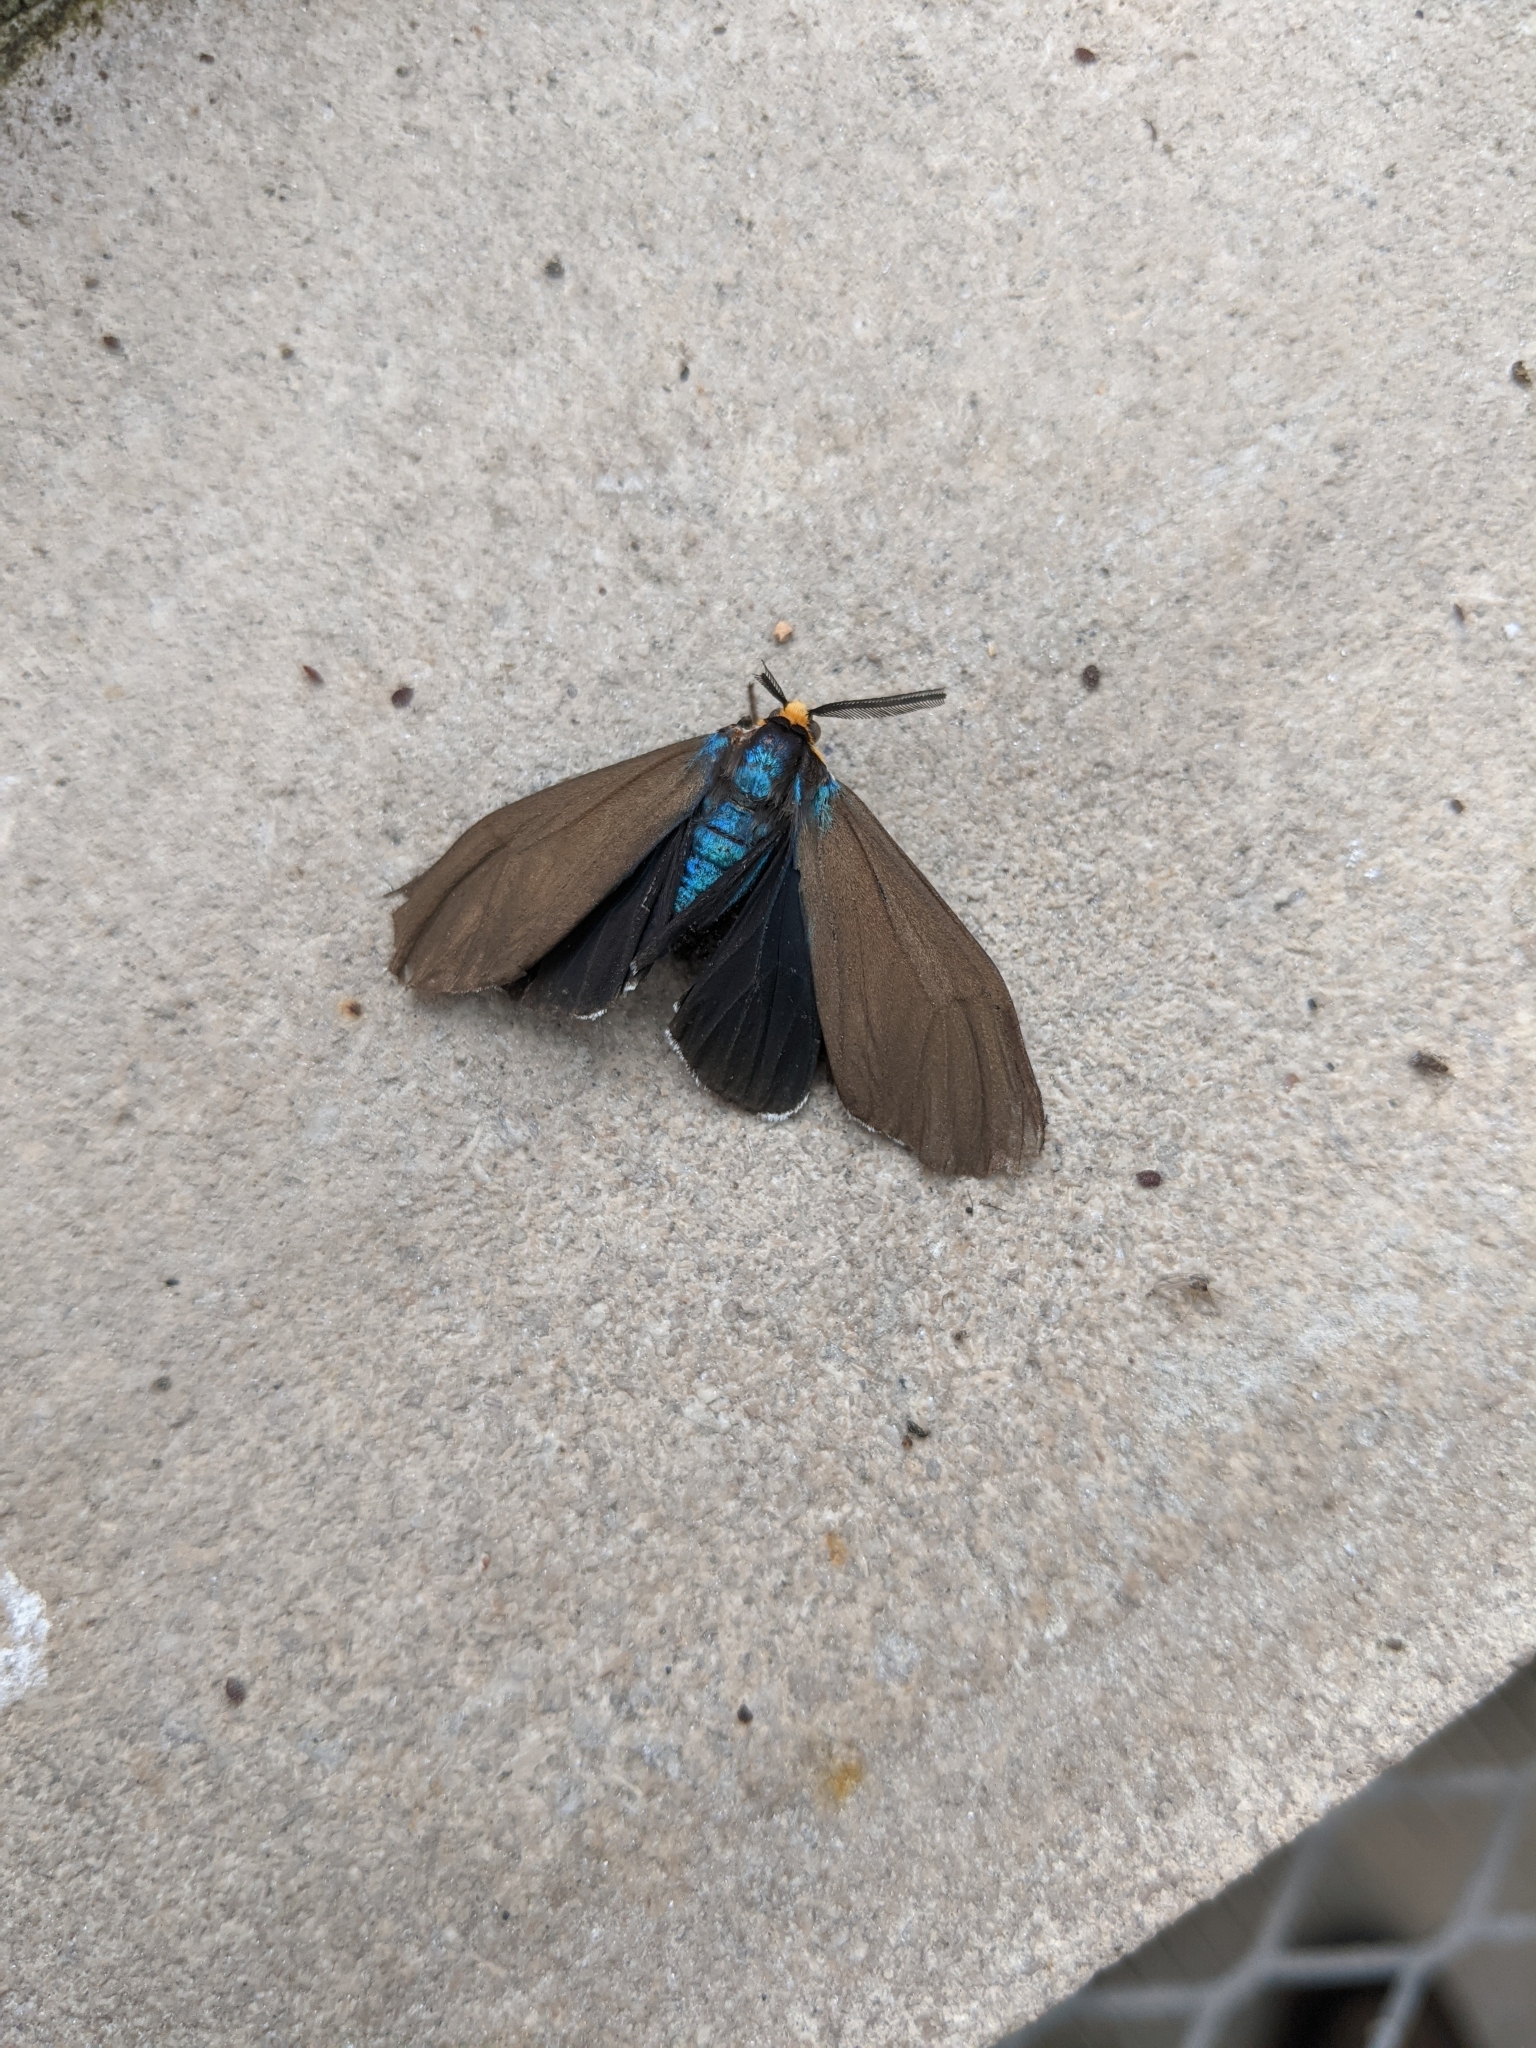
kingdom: Animalia
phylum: Arthropoda
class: Insecta
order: Lepidoptera
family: Erebidae
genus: Ctenucha
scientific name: Ctenucha virginica
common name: Virginia ctenucha moth
